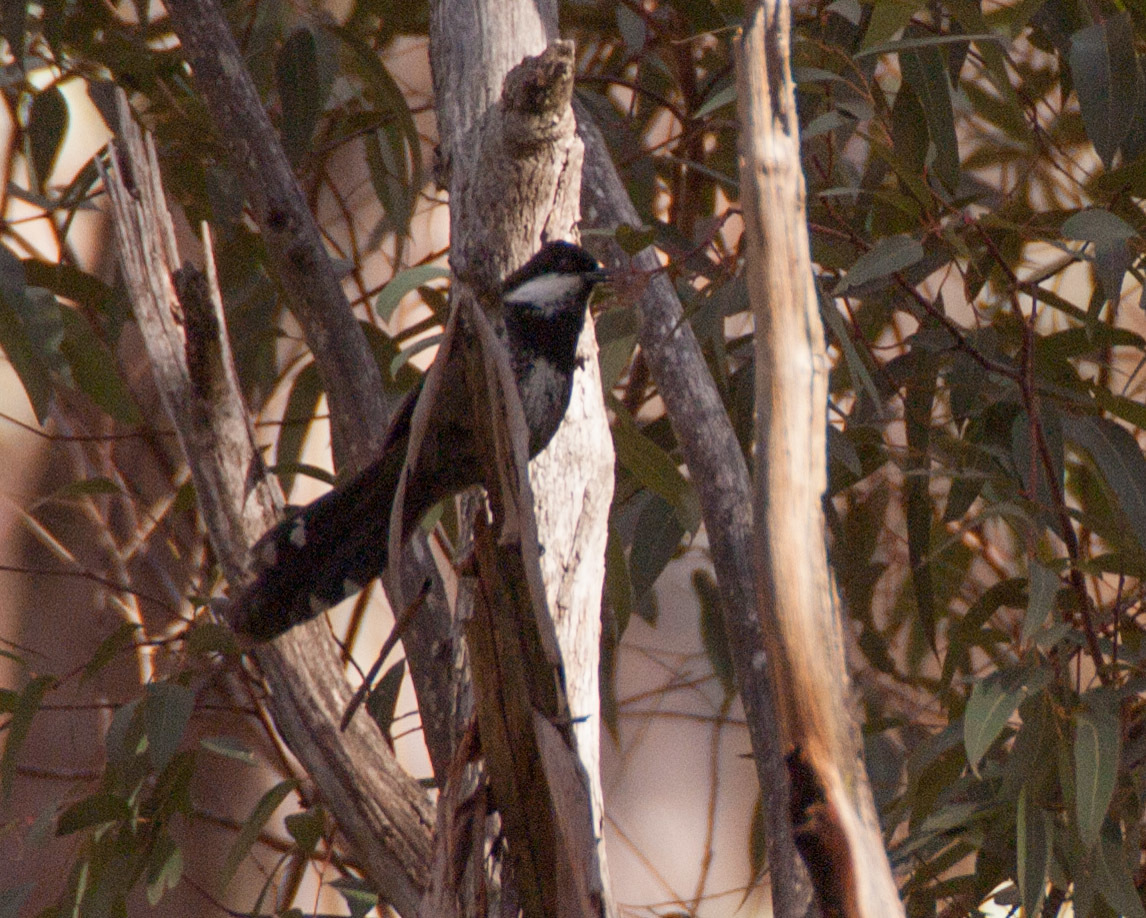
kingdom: Animalia
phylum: Chordata
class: Aves
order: Passeriformes
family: Psophodidae
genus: Psophodes
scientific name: Psophodes olivaceus
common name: Eastern whipbird
